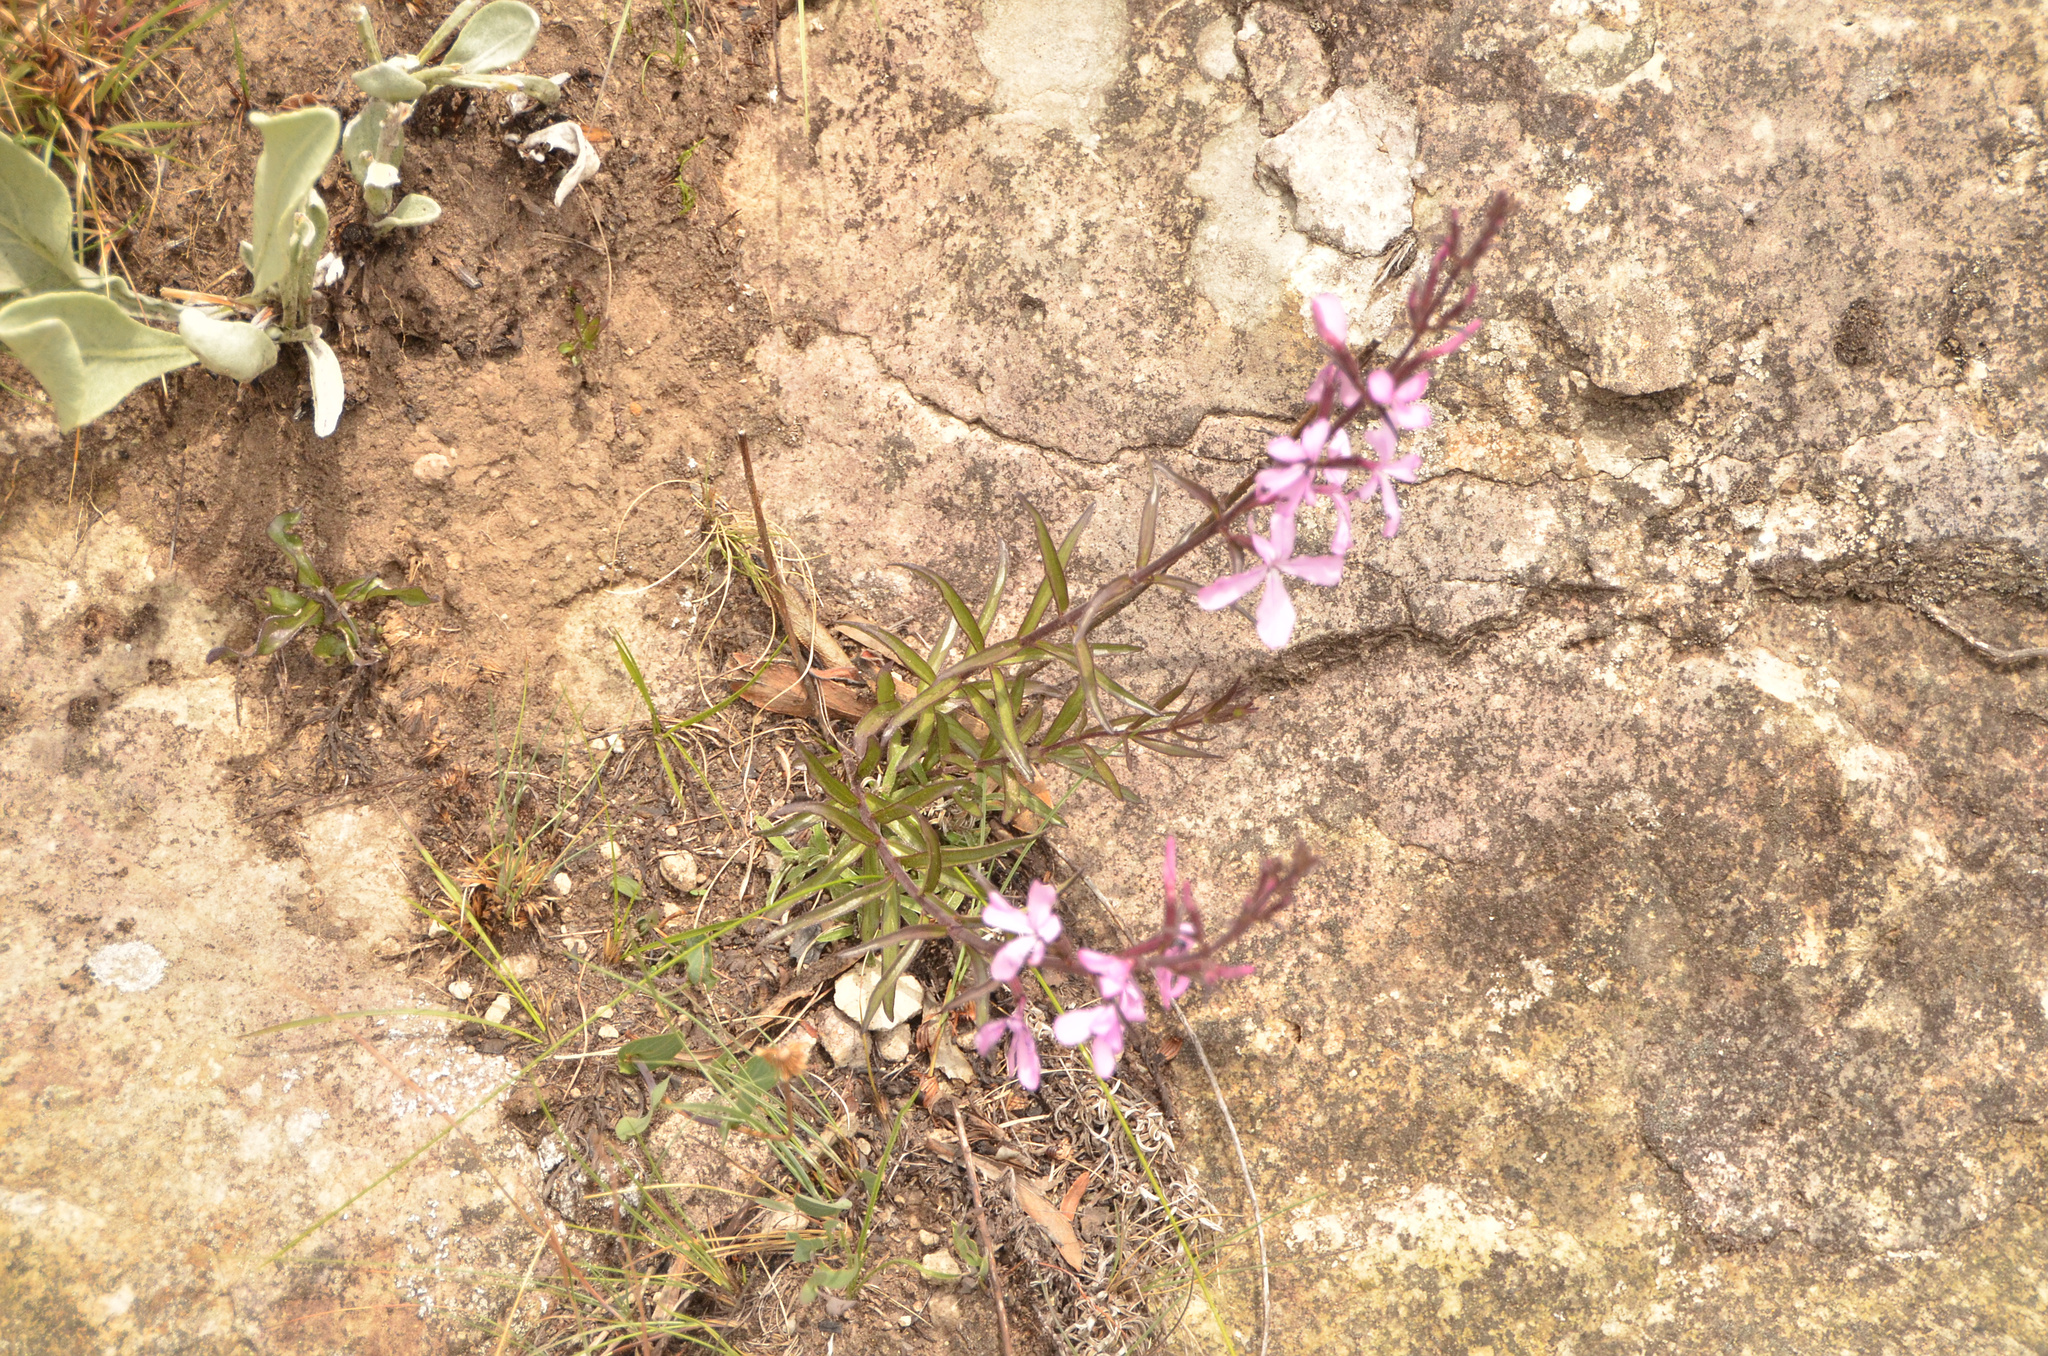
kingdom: Plantae
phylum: Tracheophyta
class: Magnoliopsida
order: Lamiales
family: Orobanchaceae
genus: Cycnium
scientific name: Cycnium racemosum
